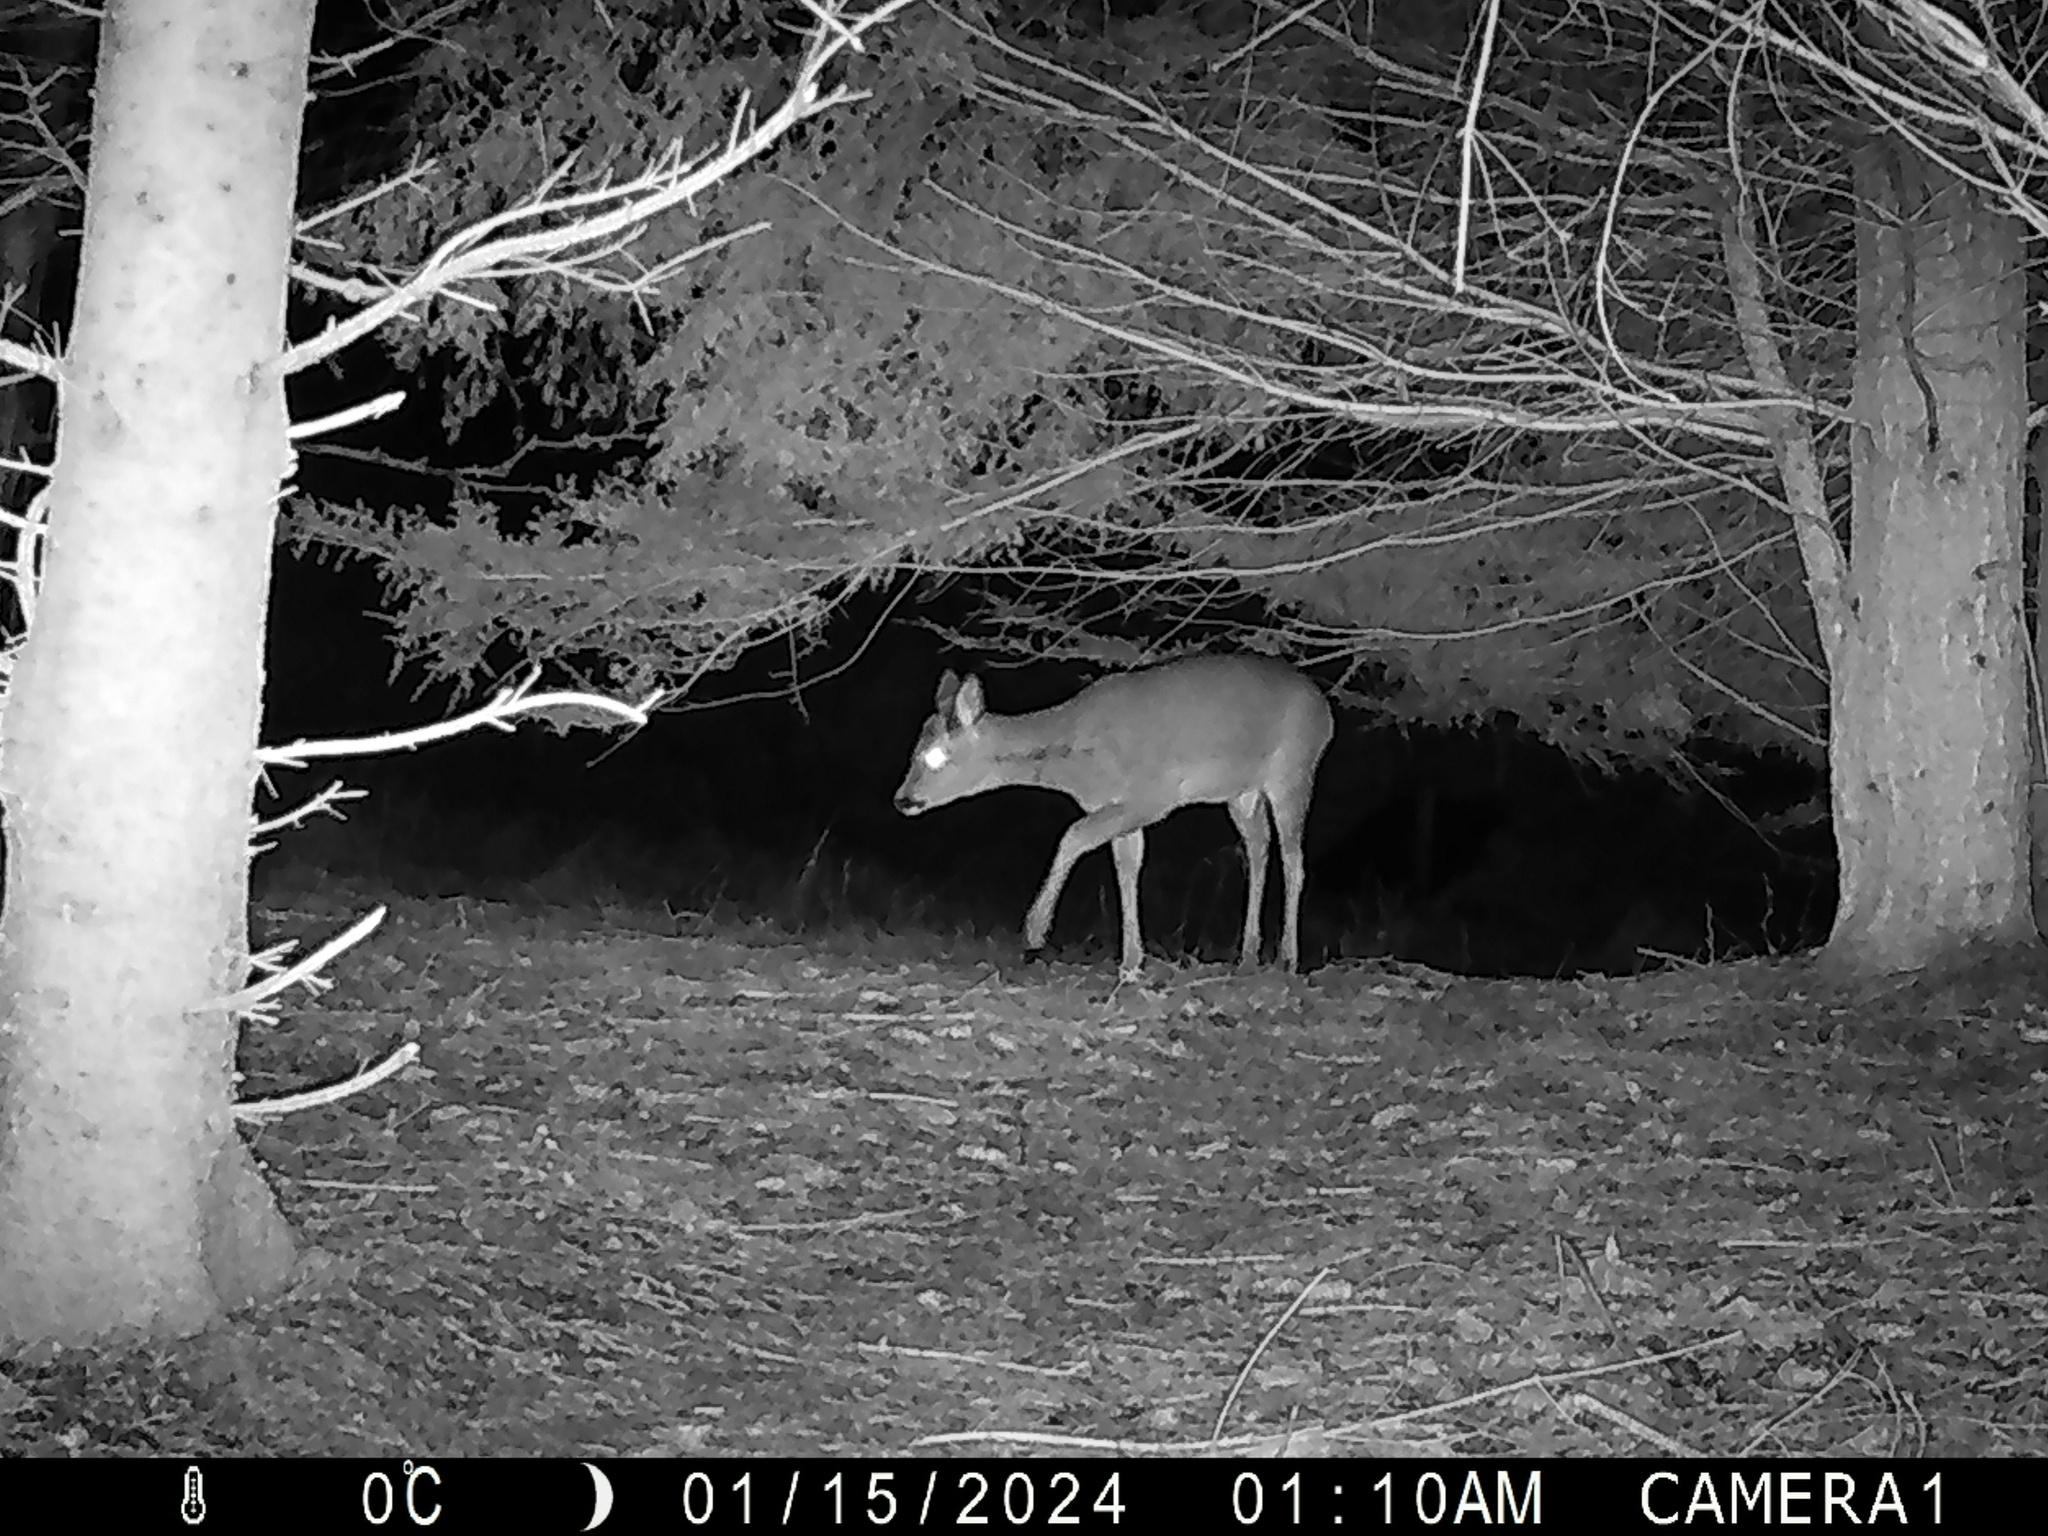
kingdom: Animalia
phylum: Chordata
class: Mammalia
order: Artiodactyla
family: Cervidae
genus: Capreolus
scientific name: Capreolus capreolus
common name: Western roe deer
